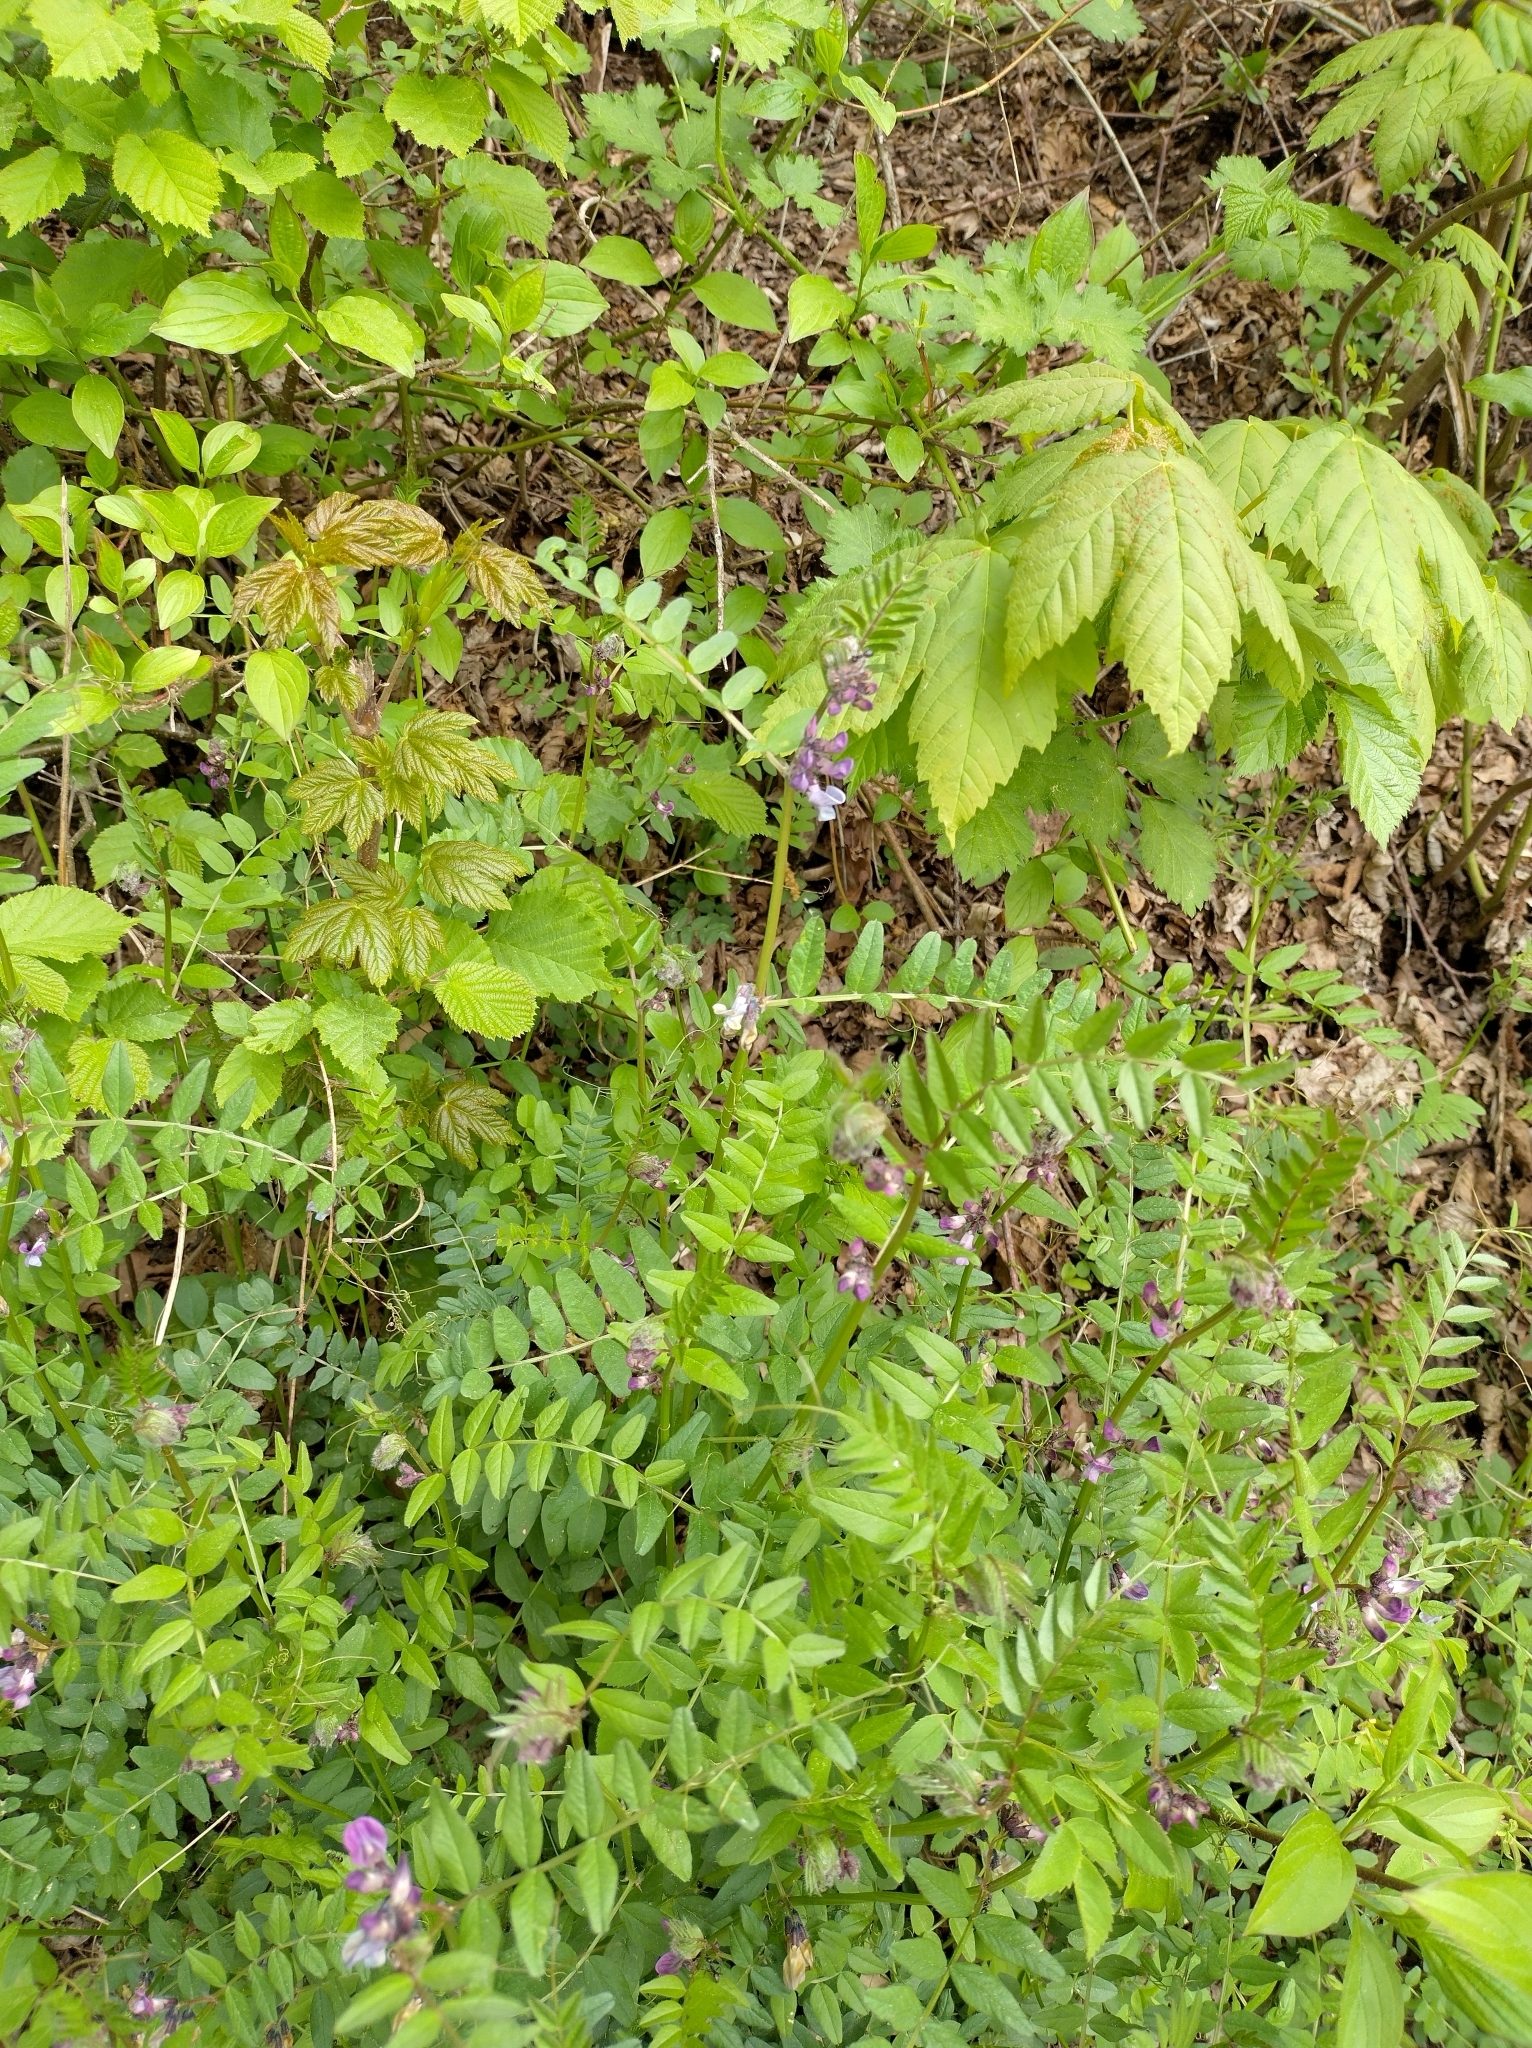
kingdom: Plantae
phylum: Tracheophyta
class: Magnoliopsida
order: Fabales
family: Fabaceae
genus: Vicia
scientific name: Vicia sepium
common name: Bush vetch
